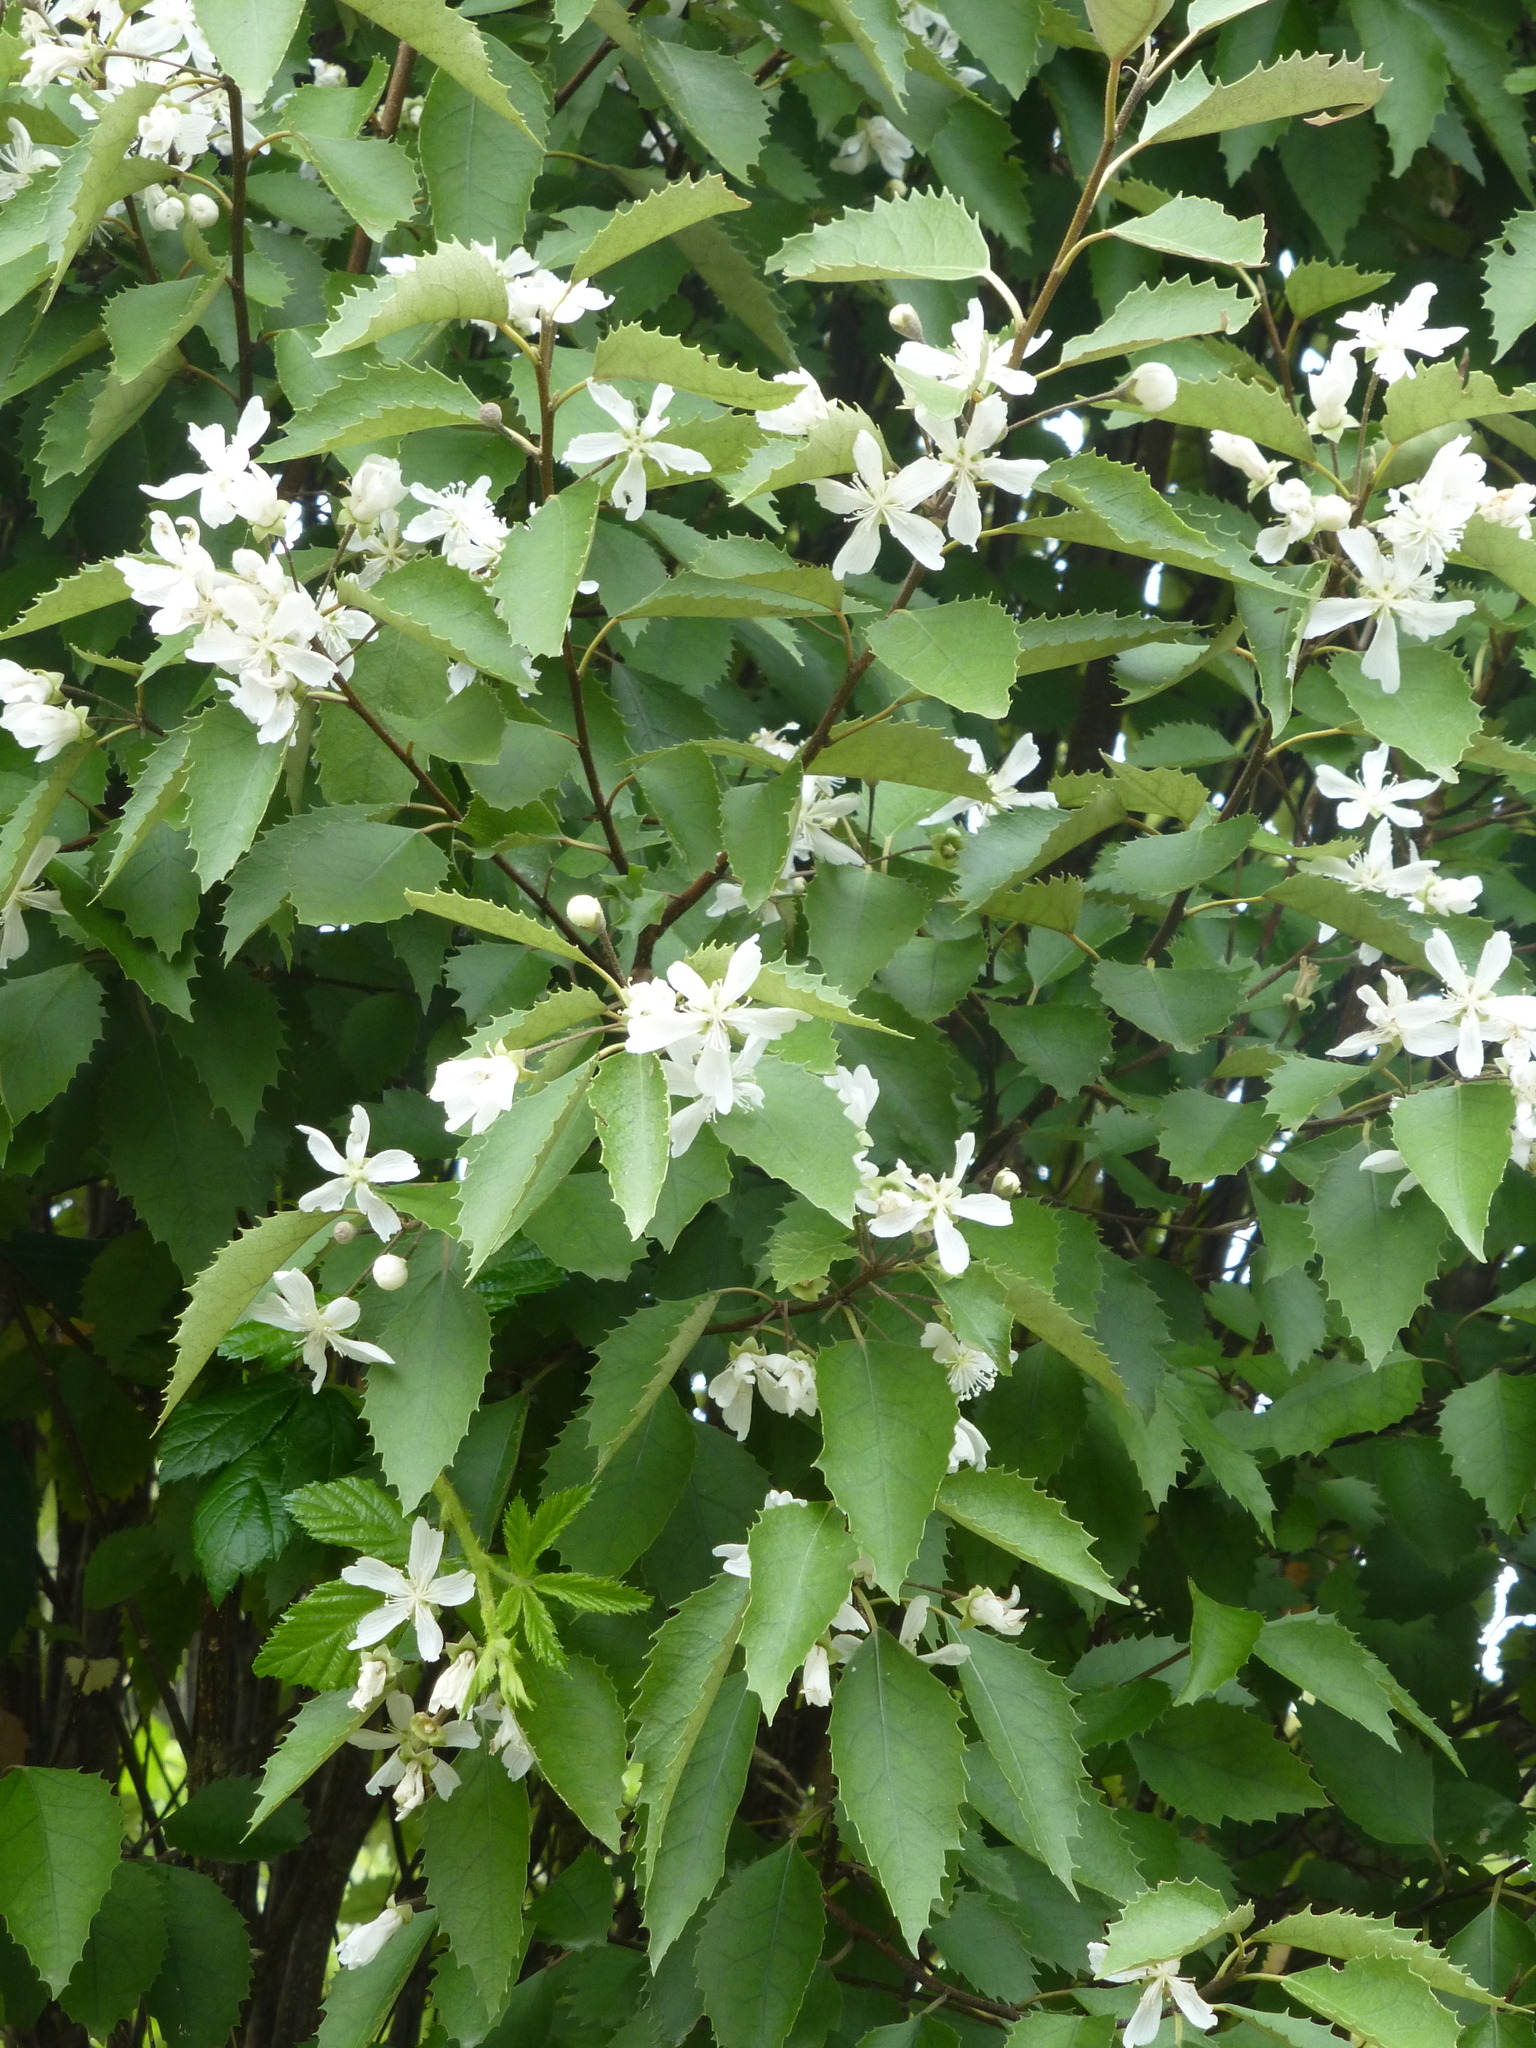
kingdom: Plantae
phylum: Tracheophyta
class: Magnoliopsida
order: Malvales
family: Malvaceae
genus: Hoheria
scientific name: Hoheria populnea
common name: Lacebark
